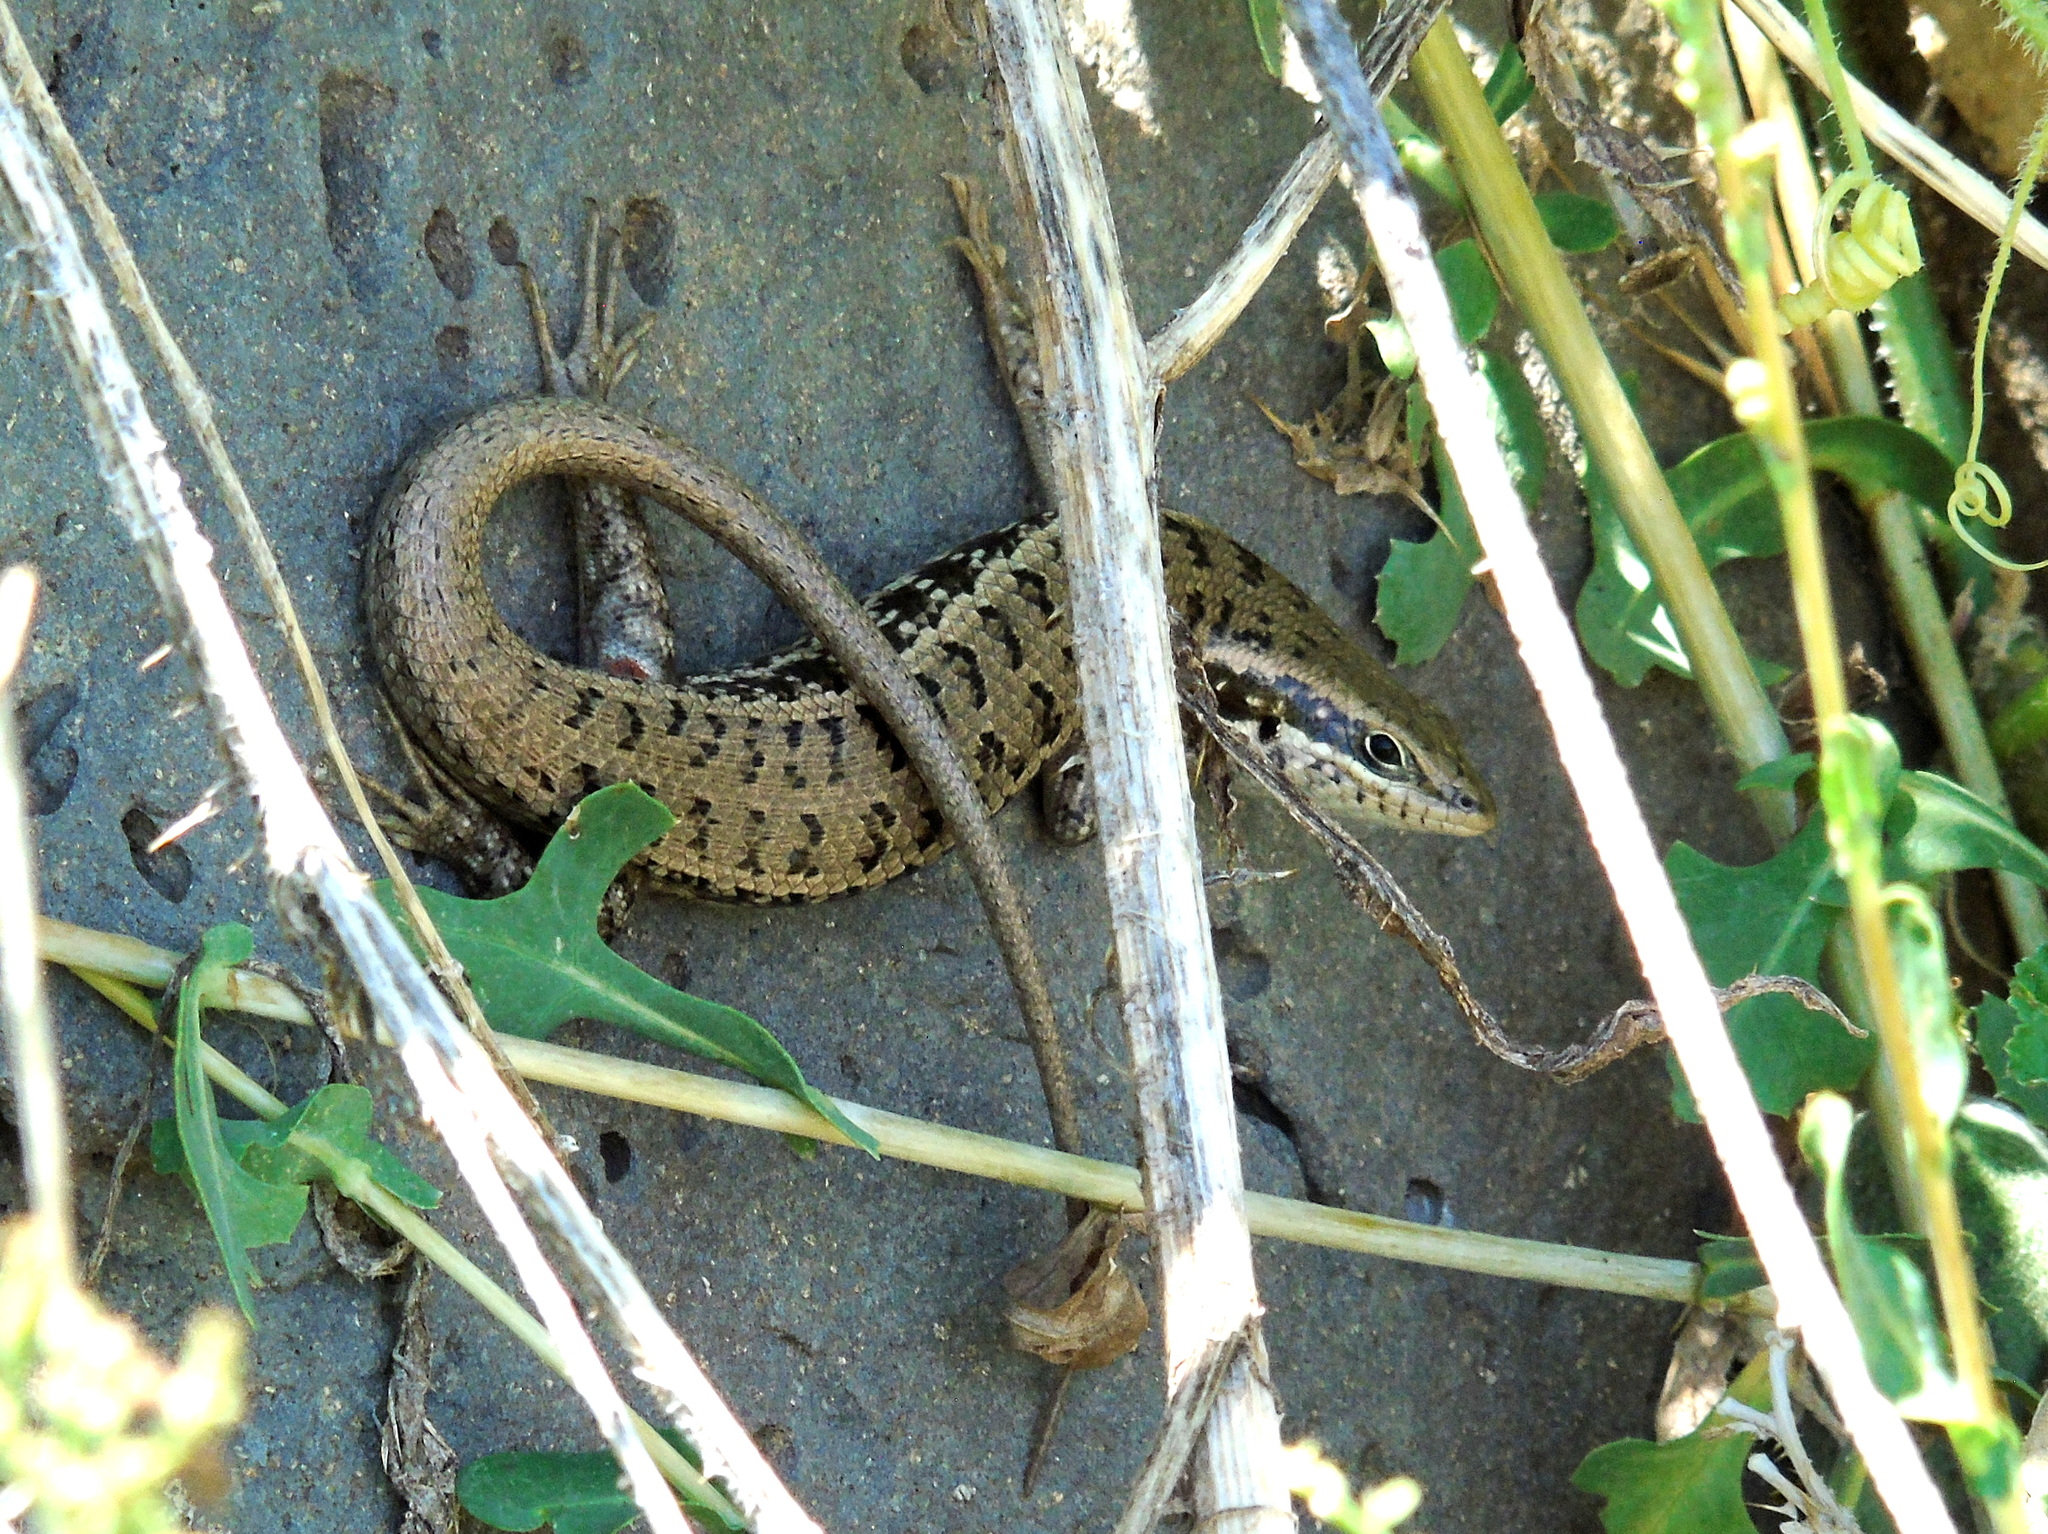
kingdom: Animalia
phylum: Chordata
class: Squamata
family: Scincidae
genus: Heremites
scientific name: Heremites auratus
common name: Golden grass mabuya
